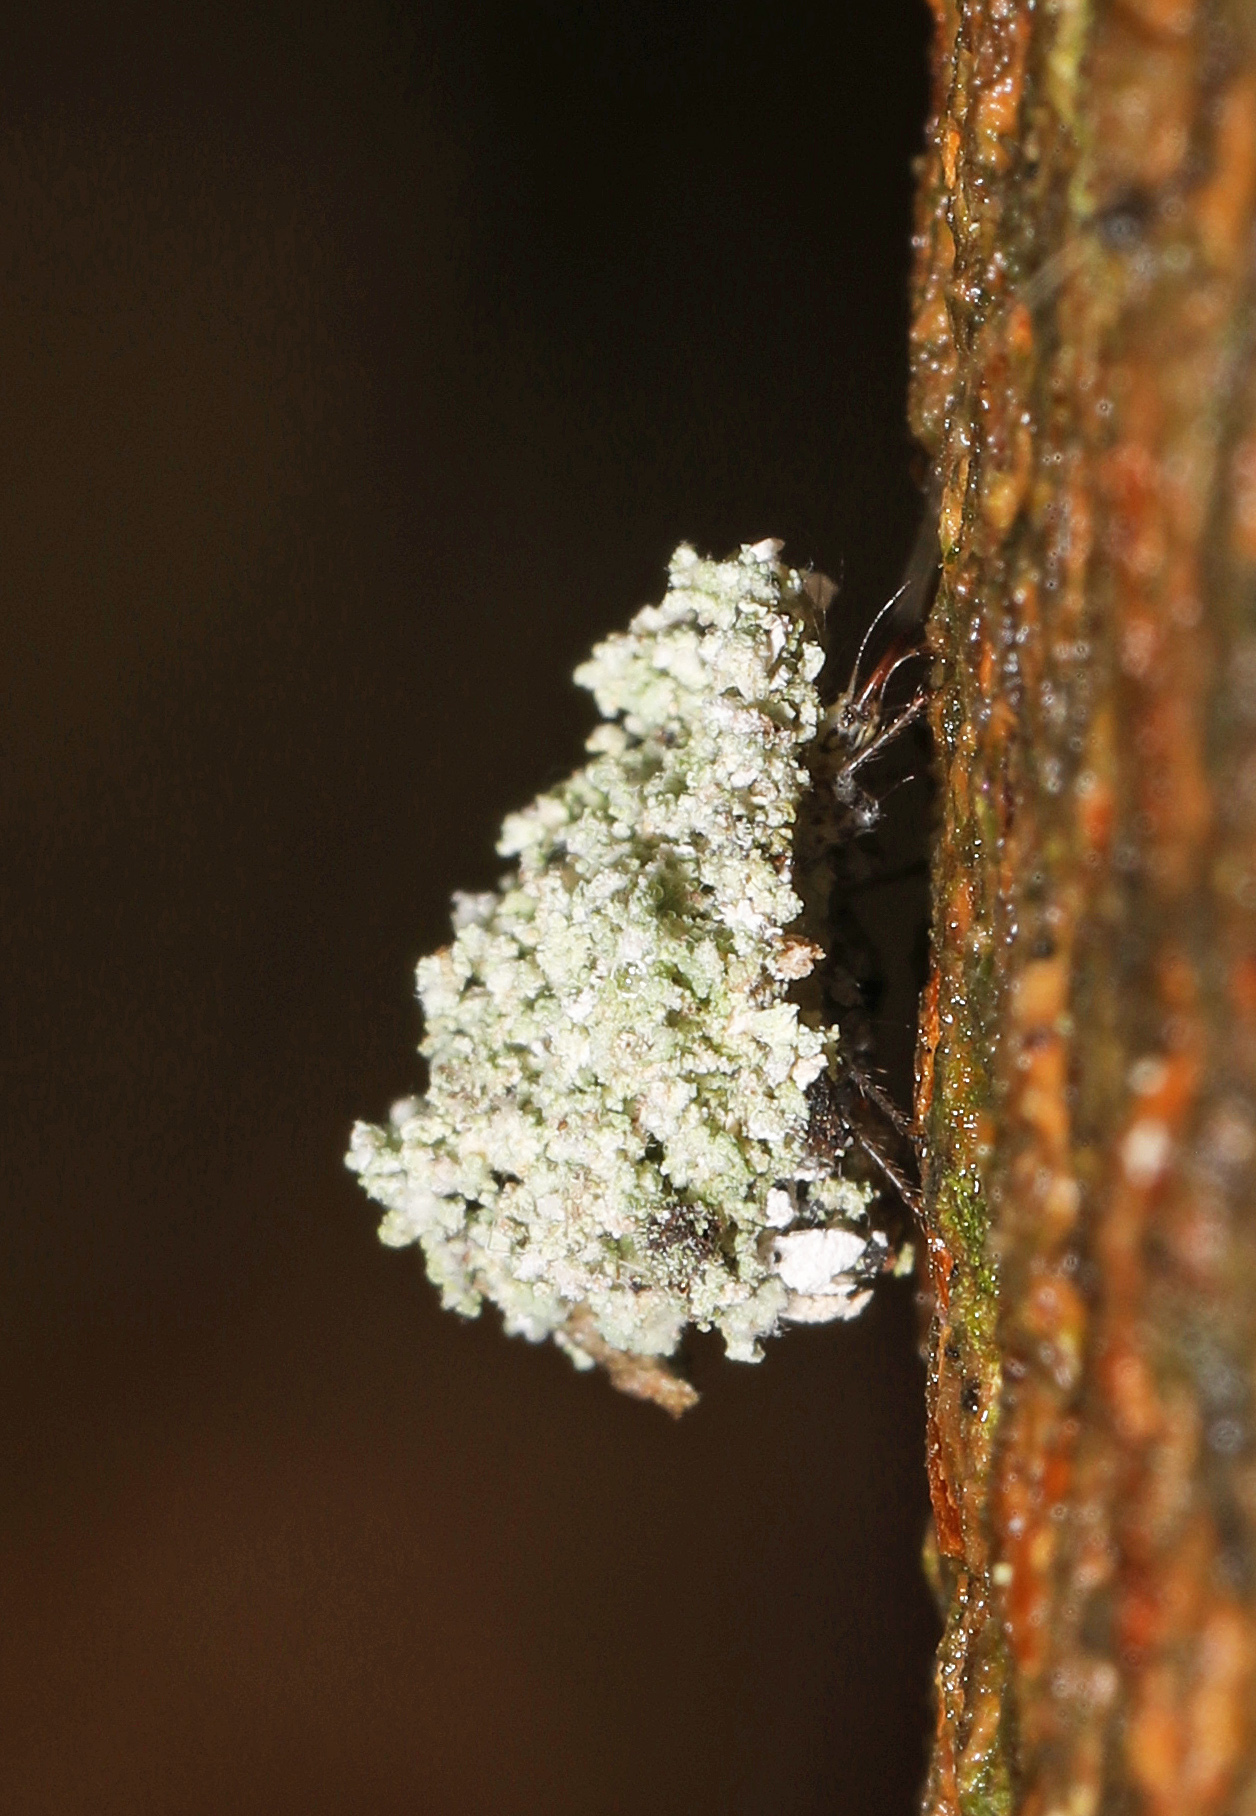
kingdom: Animalia
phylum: Arthropoda
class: Insecta
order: Neuroptera
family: Chrysopidae
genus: Leucochrysa
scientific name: Leucochrysa pavida
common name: Lichen-carrying green lacewing
